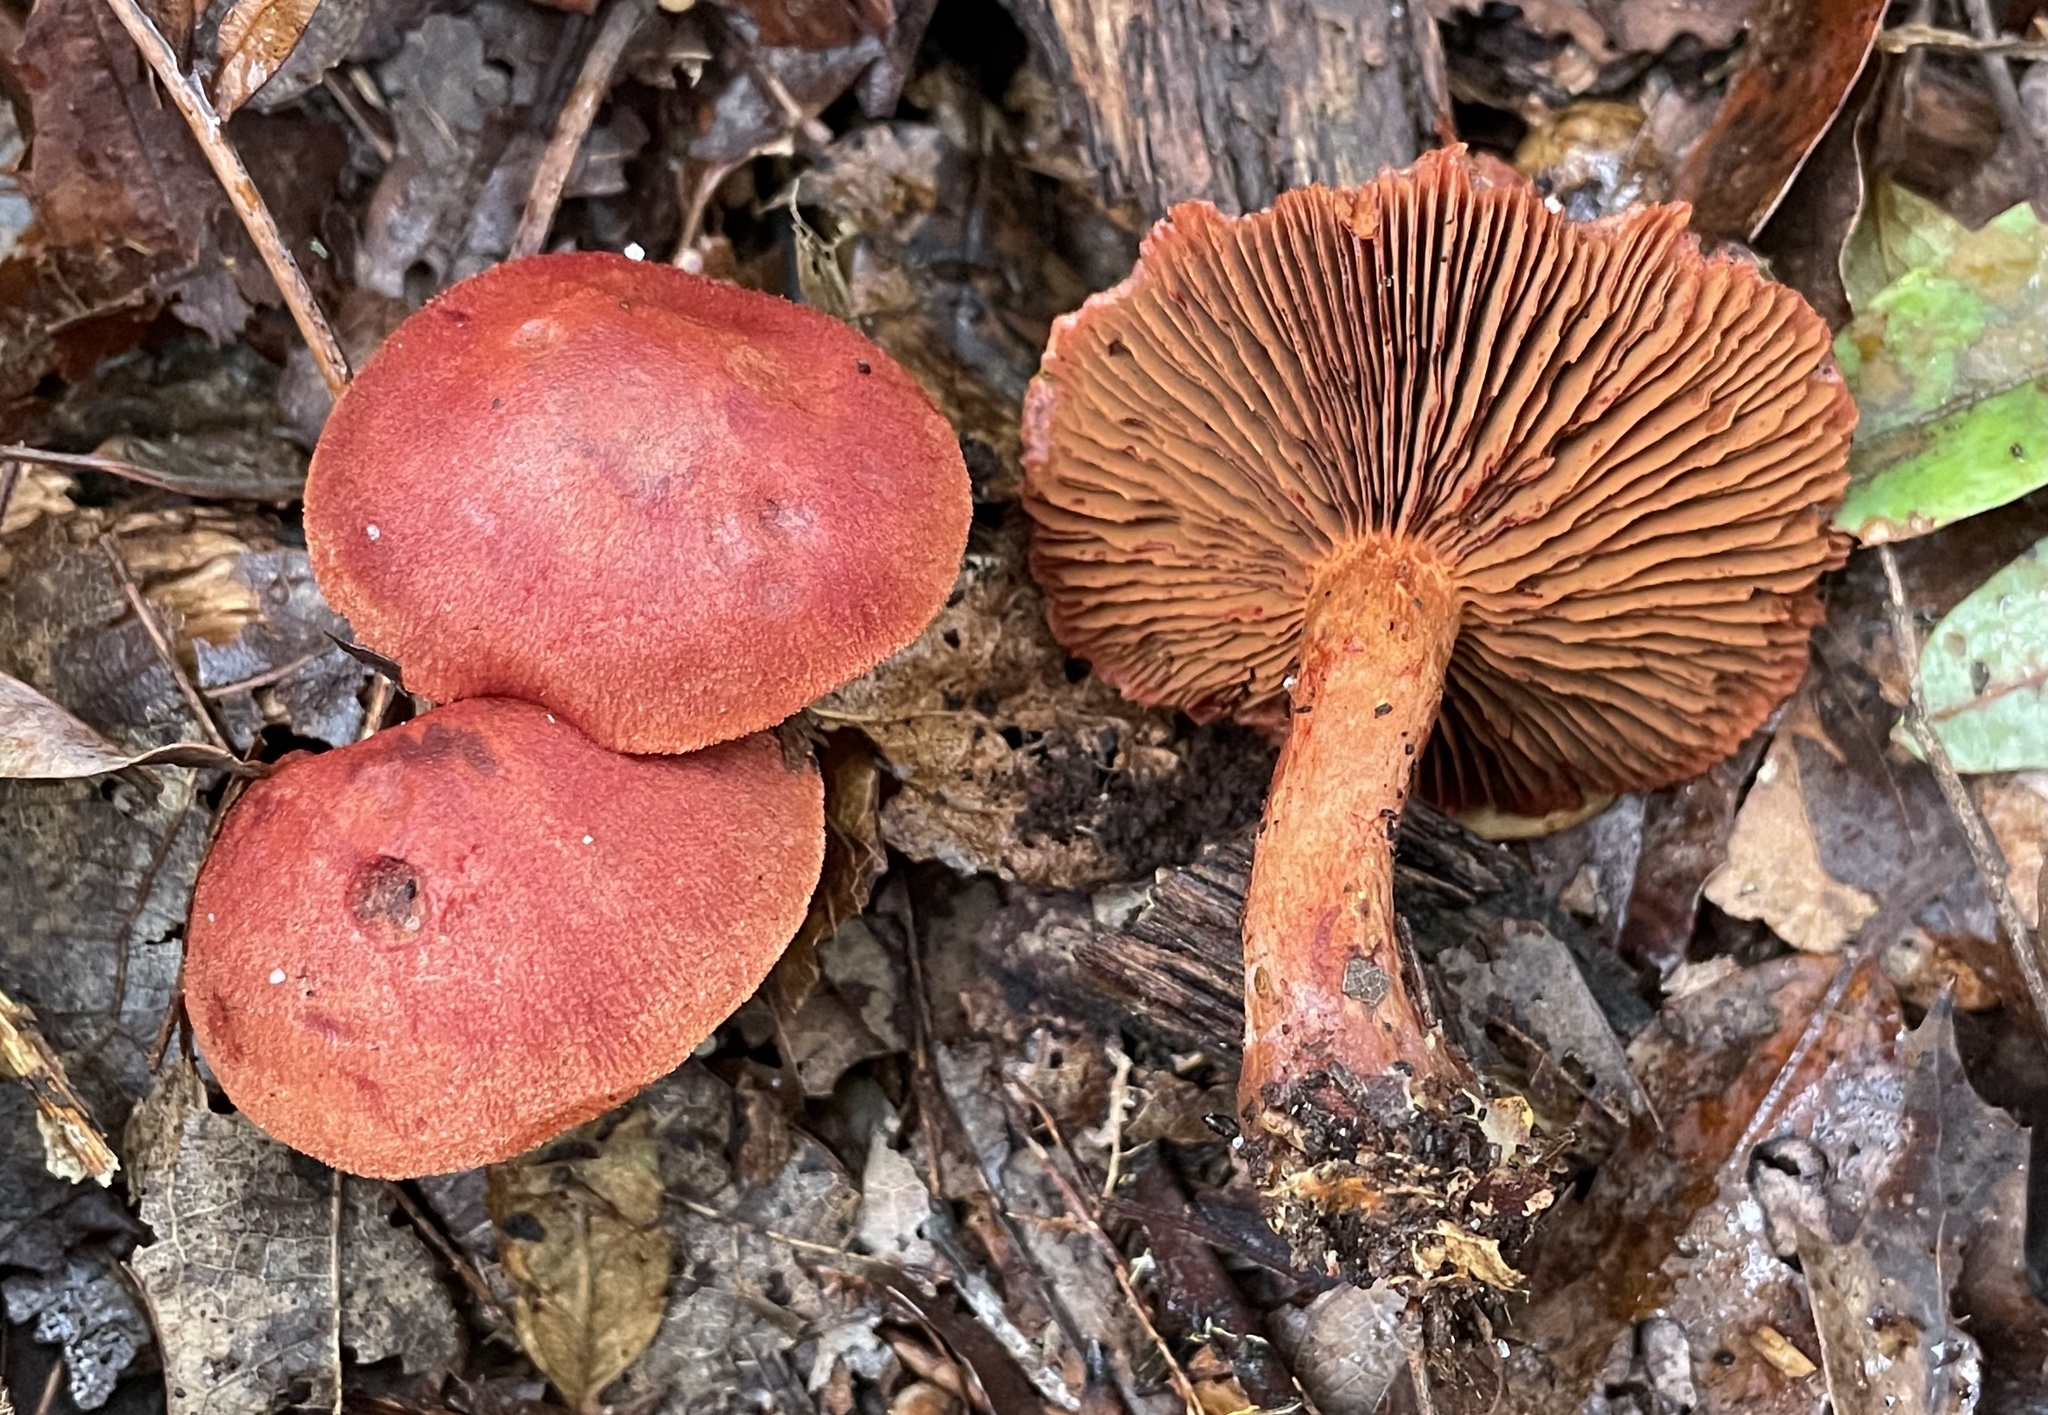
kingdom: Fungi
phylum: Basidiomycota
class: Agaricomycetes
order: Agaricales
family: Cortinariaceae
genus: Cortinarius
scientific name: Cortinarius harrisonii
